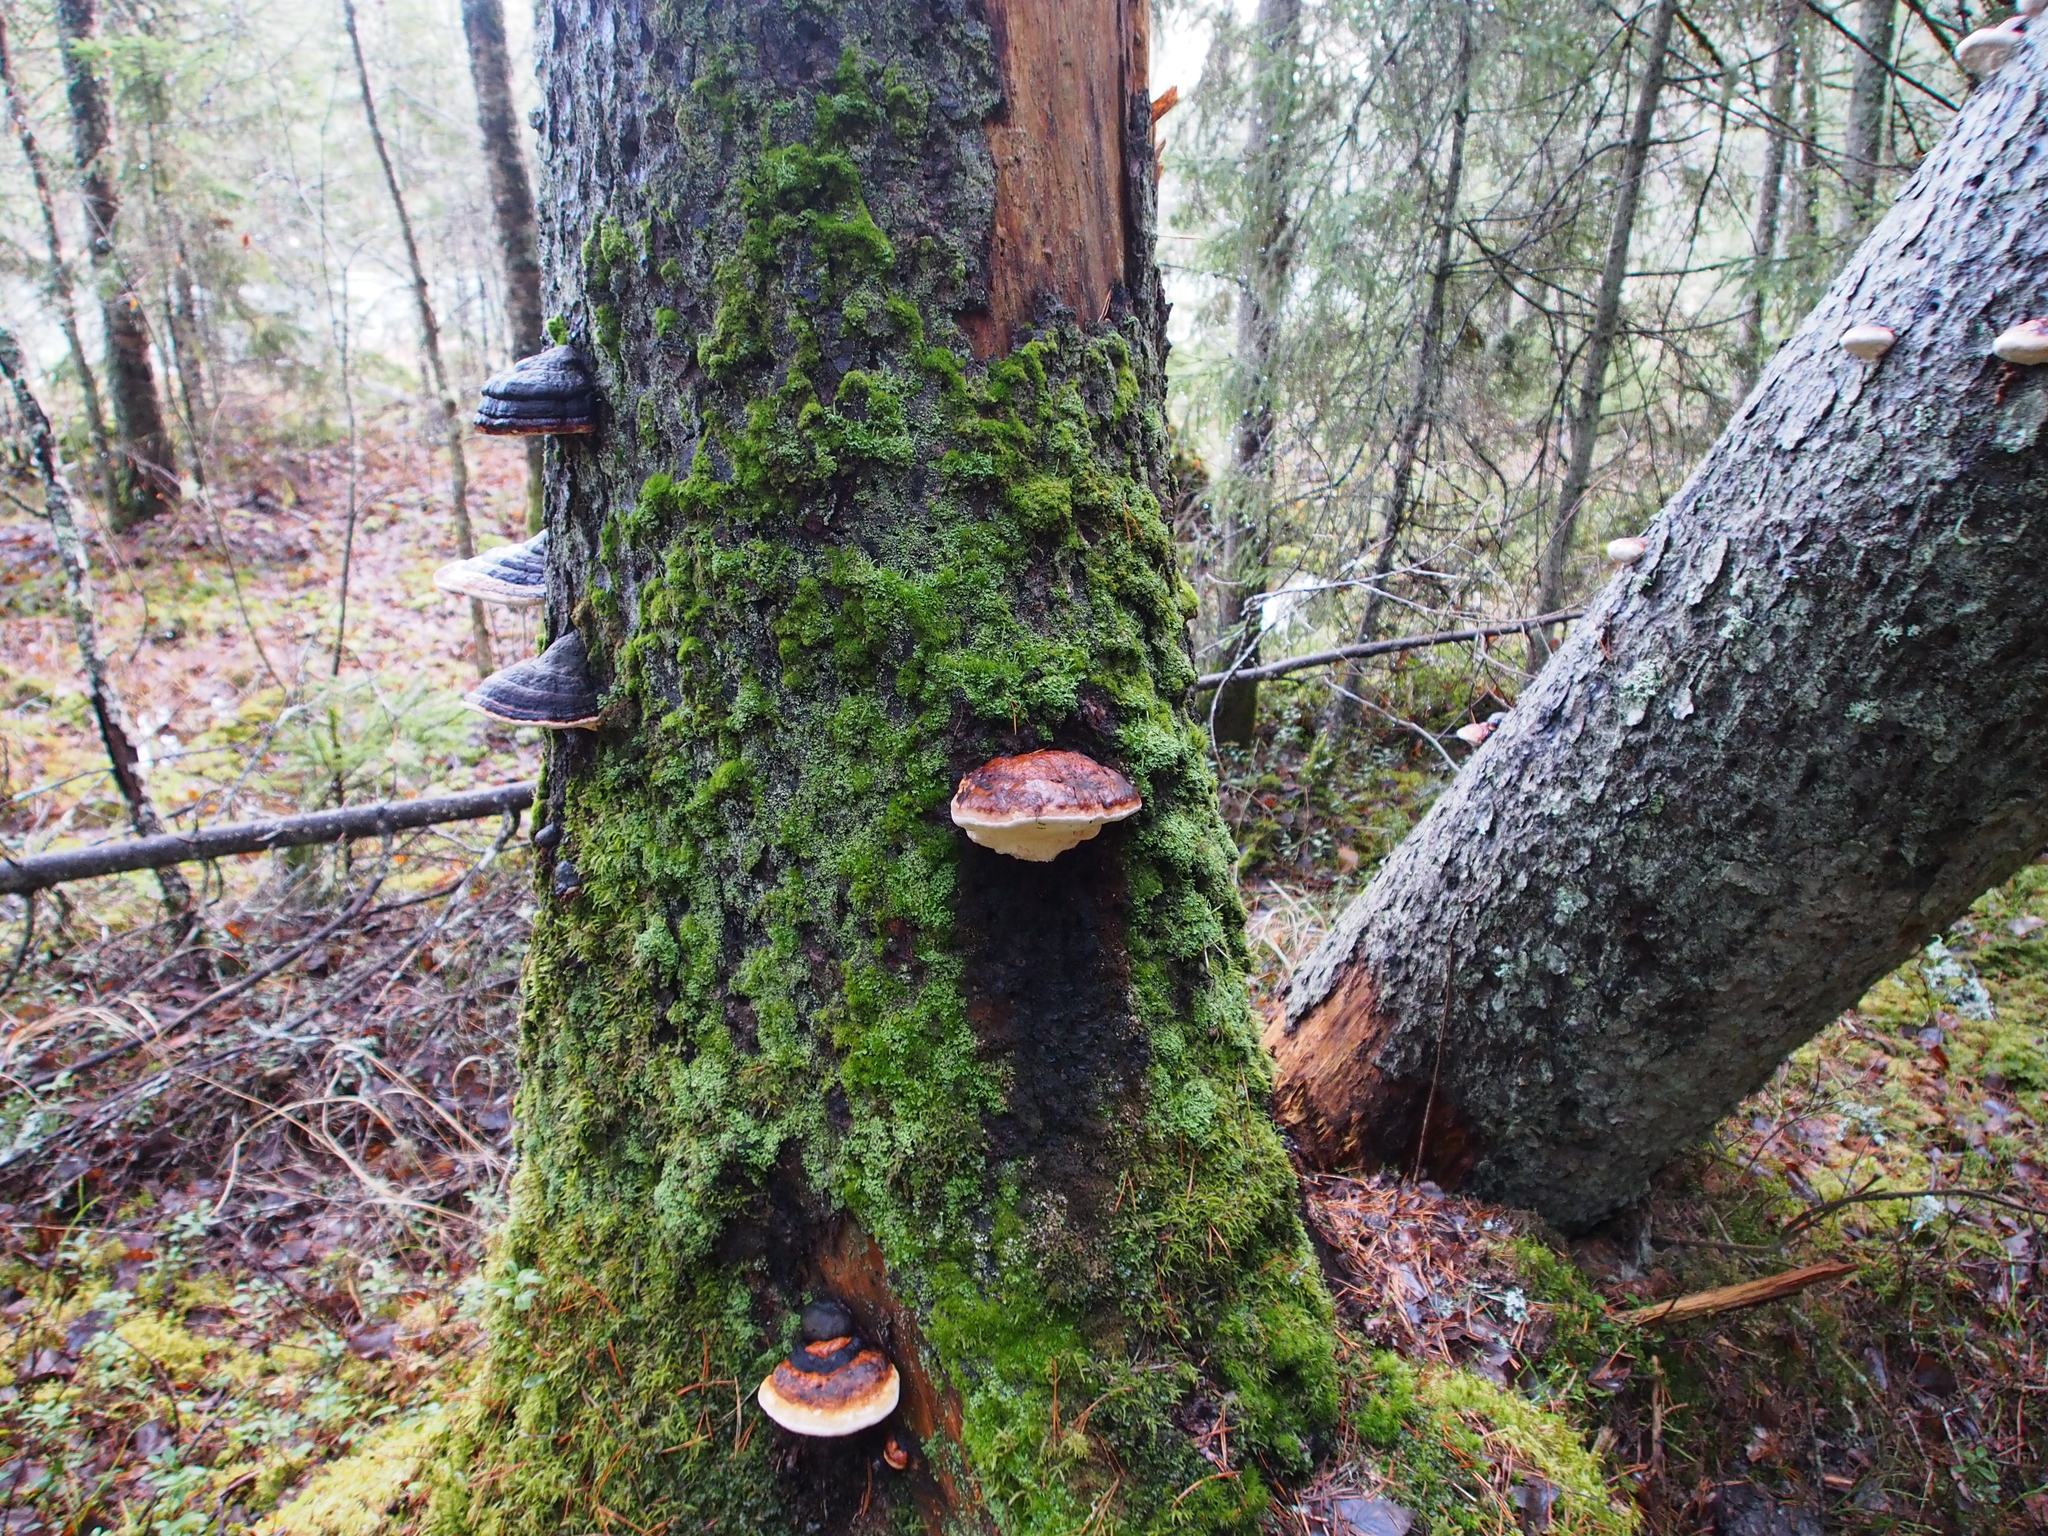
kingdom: Fungi
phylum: Basidiomycota
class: Agaricomycetes
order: Polyporales
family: Fomitopsidaceae
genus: Fomitopsis
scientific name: Fomitopsis pinicola
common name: Red-belted bracket
